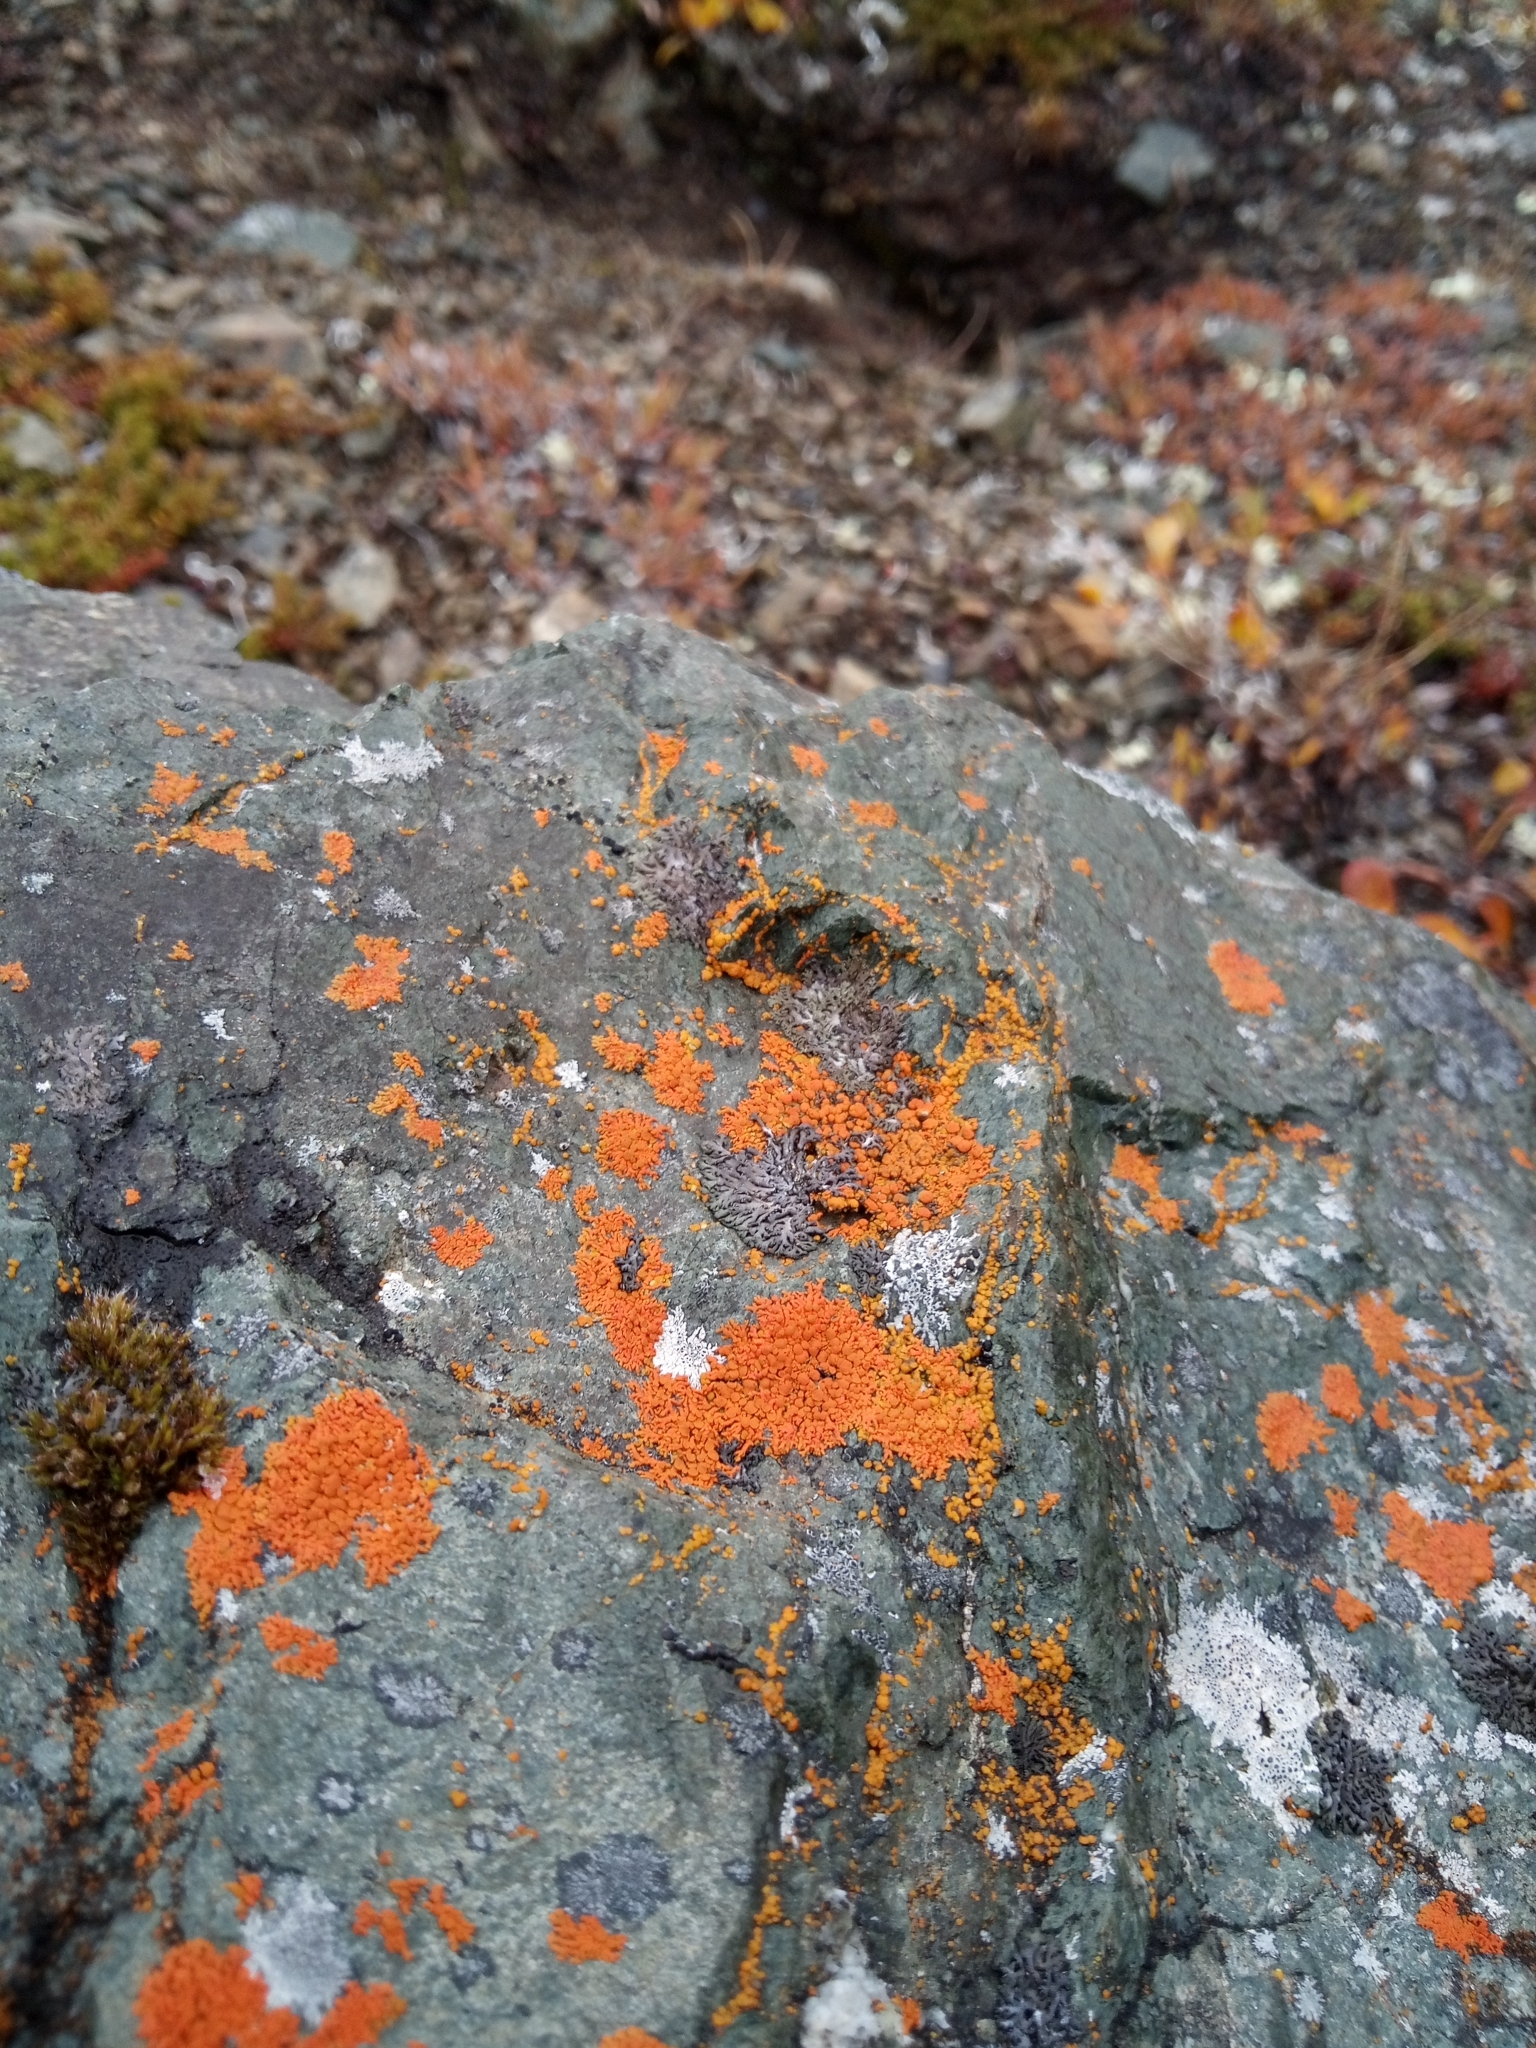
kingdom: Fungi
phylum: Ascomycota
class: Lecanoromycetes
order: Teloschistales
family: Teloschistaceae
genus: Xanthoria
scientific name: Xanthoria elegans
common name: Elegant sunburst lichen
